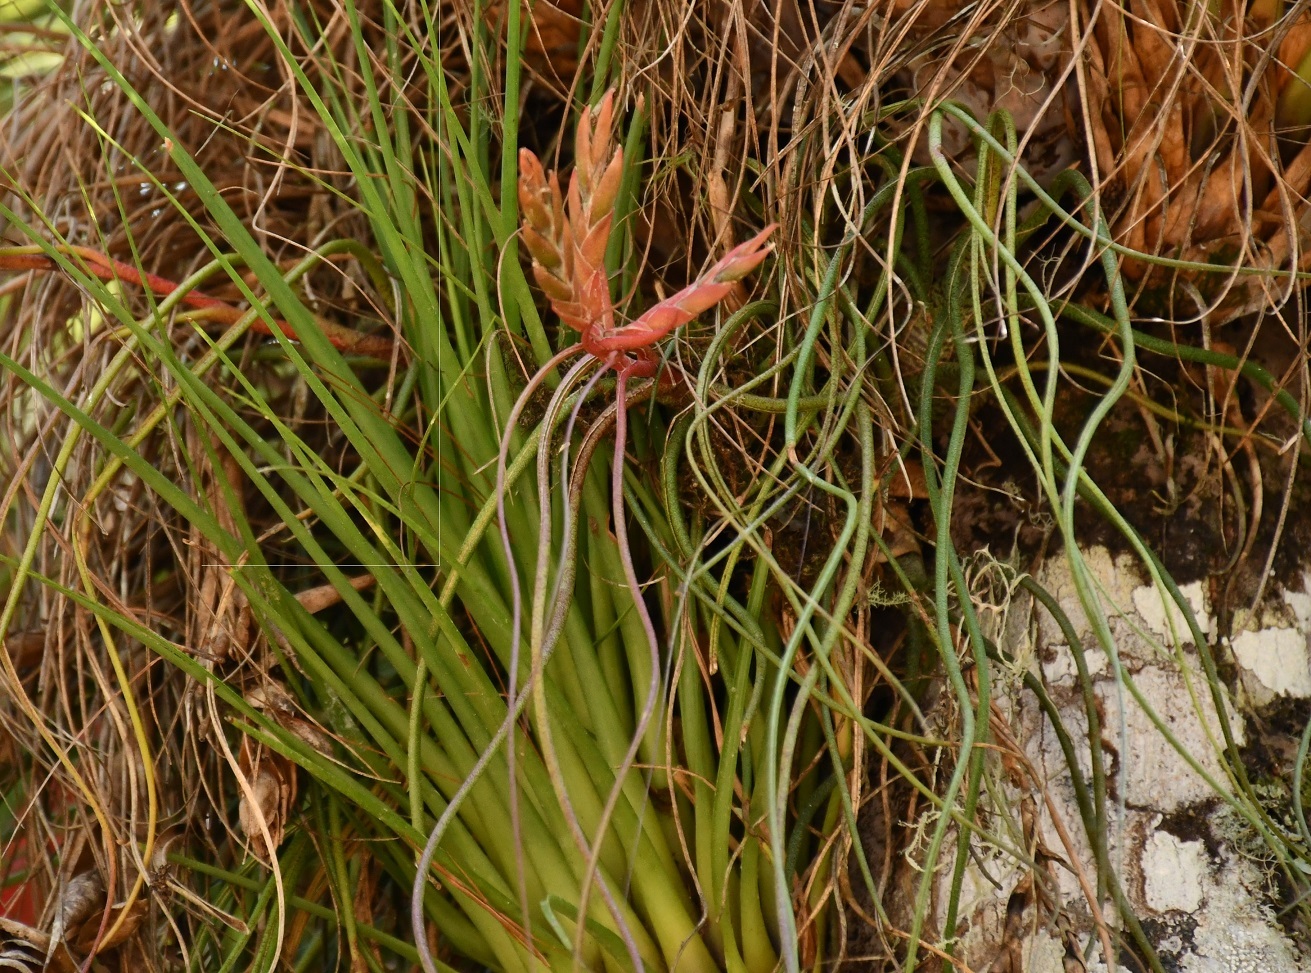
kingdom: Plantae
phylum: Tracheophyta
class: Liliopsida
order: Poales
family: Bromeliaceae
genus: Tillandsia
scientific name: Tillandsia caput-medusae
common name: Octopus plant
